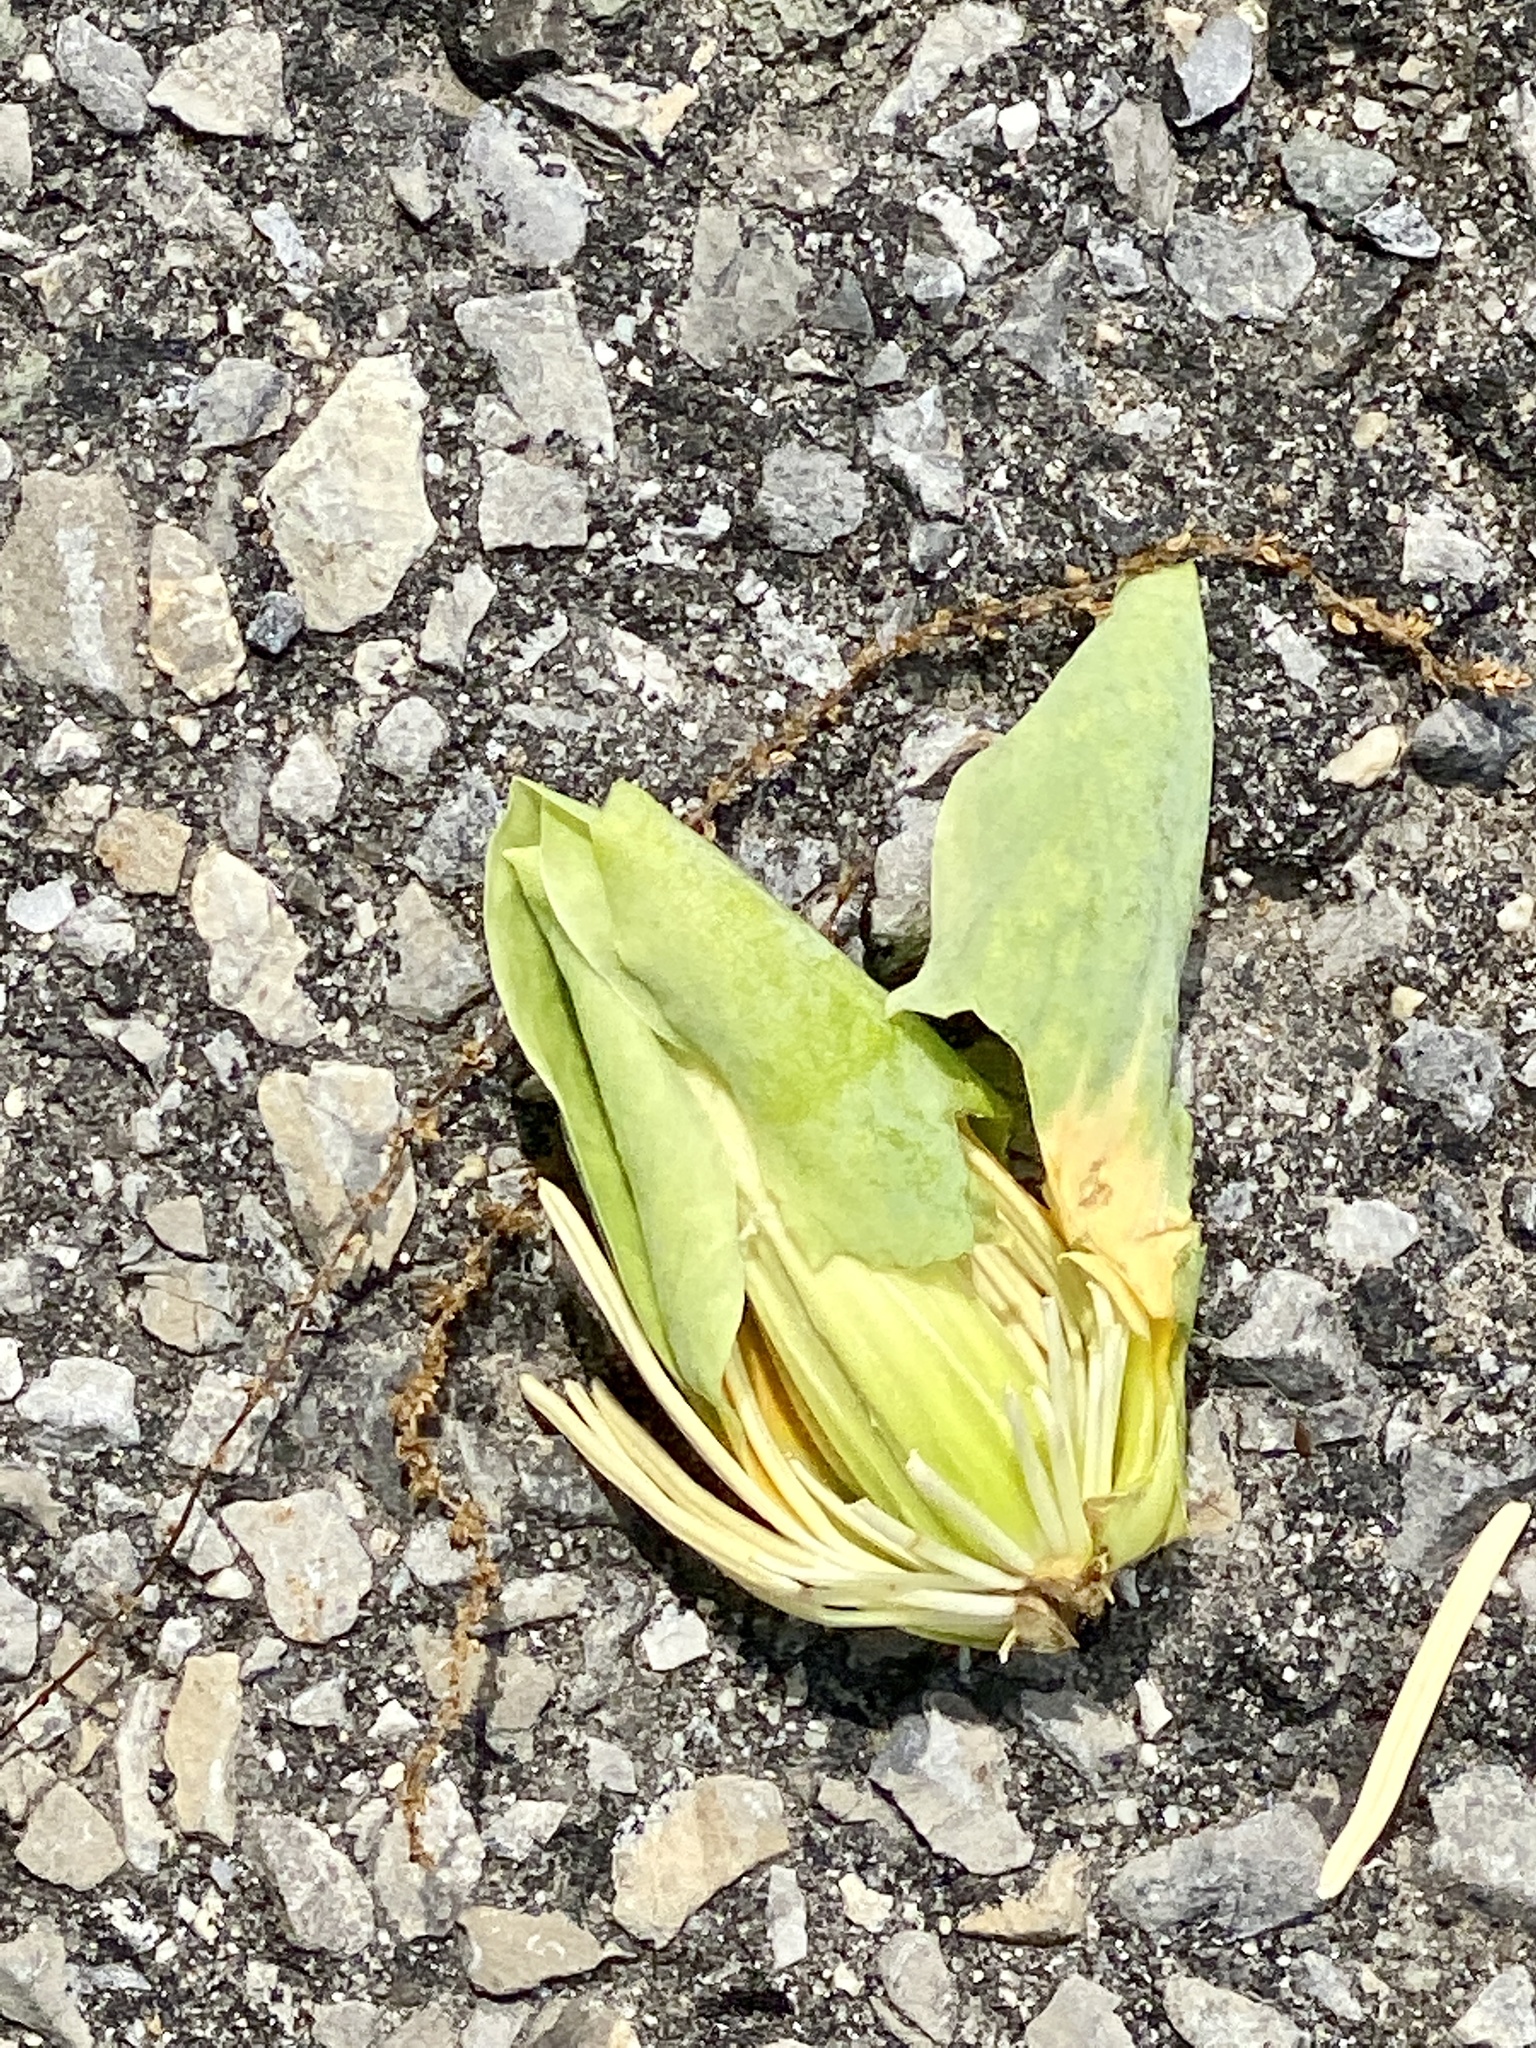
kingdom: Plantae
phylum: Tracheophyta
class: Magnoliopsida
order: Magnoliales
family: Magnoliaceae
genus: Liriodendron
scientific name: Liriodendron tulipifera
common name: Tulip tree
